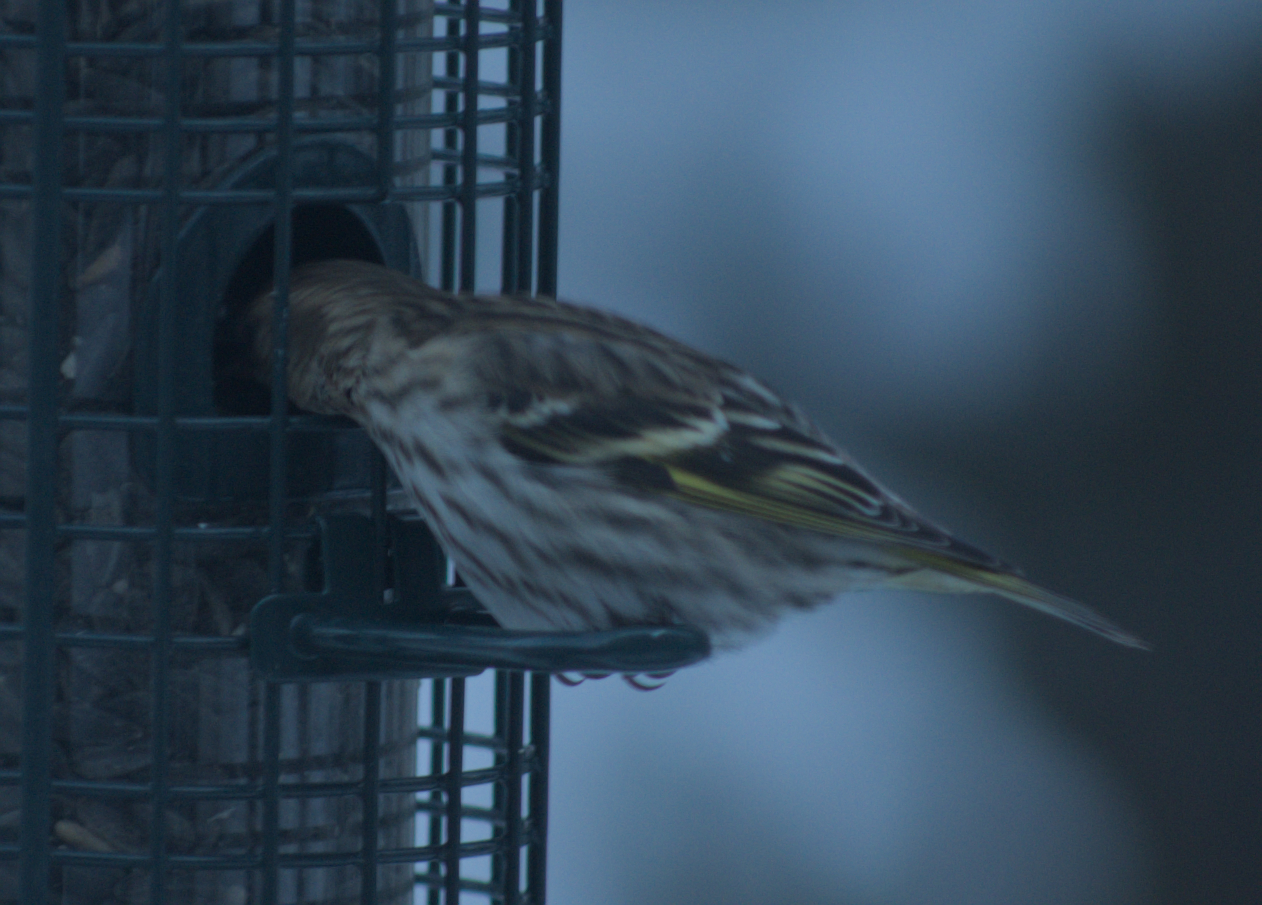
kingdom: Animalia
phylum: Chordata
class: Aves
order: Passeriformes
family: Fringillidae
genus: Spinus
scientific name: Spinus pinus
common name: Pine siskin
